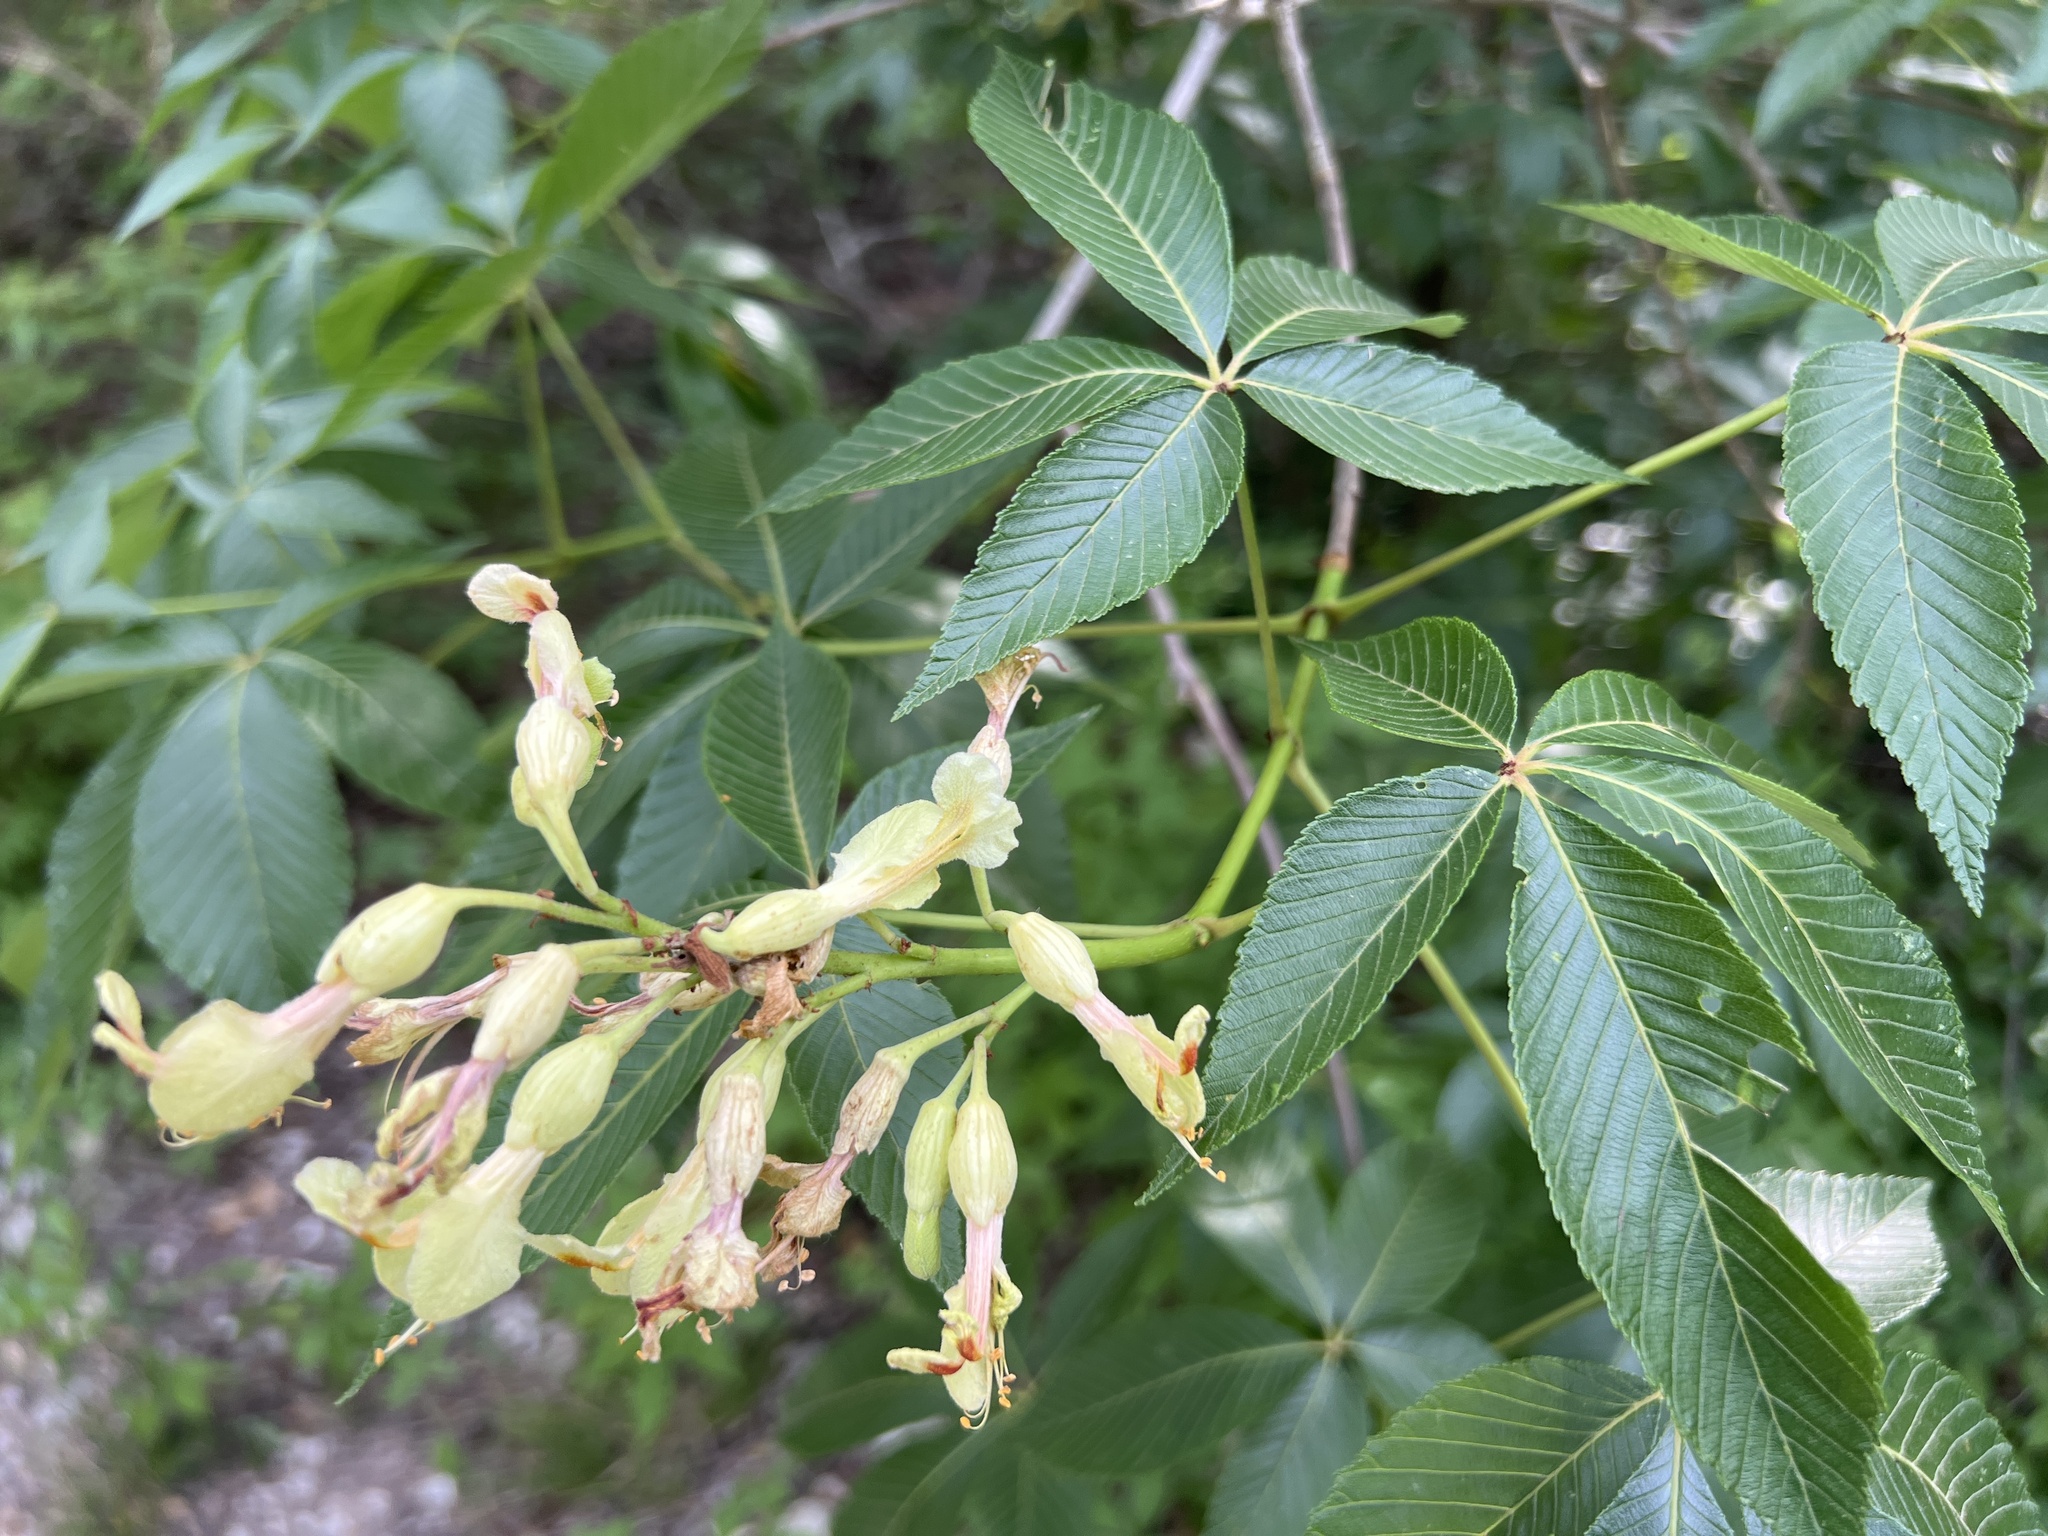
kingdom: Plantae
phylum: Tracheophyta
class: Magnoliopsida
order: Sapindales
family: Sapindaceae
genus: Aesculus
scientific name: Aesculus pavia
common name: Red buckeye
